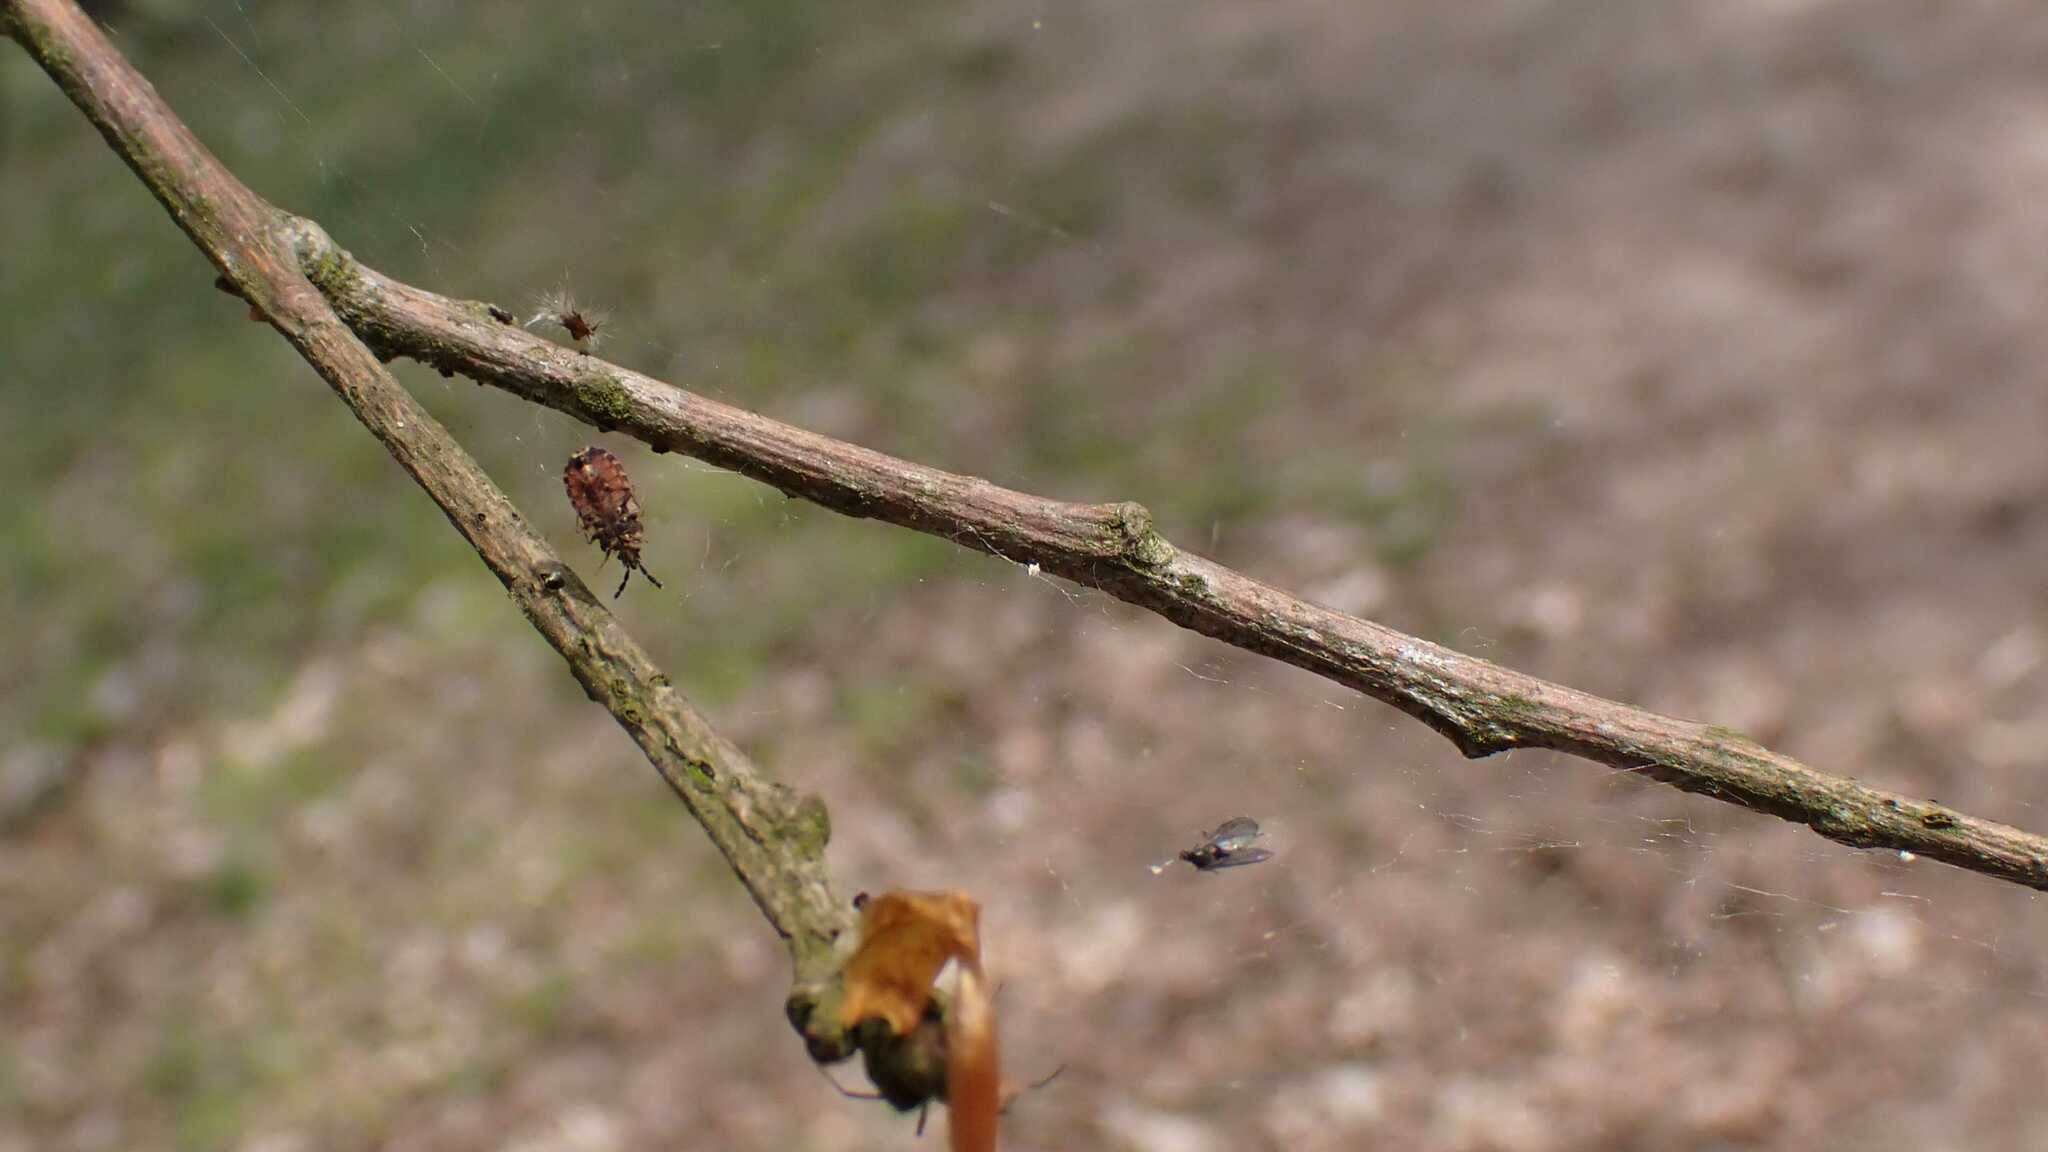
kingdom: Animalia
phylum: Arthropoda
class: Insecta
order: Hemiptera
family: Aradidae
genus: Aradus
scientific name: Aradus depressus
